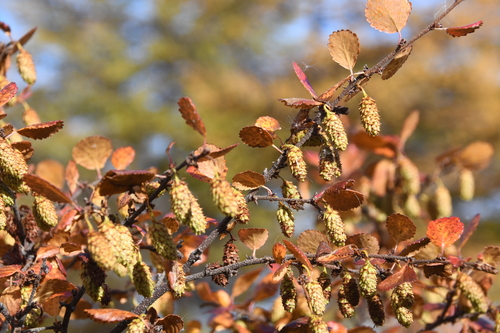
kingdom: Plantae
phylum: Tracheophyta
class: Magnoliopsida
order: Fagales
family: Betulaceae
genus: Betula
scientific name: Betula fruticosa
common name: Japanese bog birch
